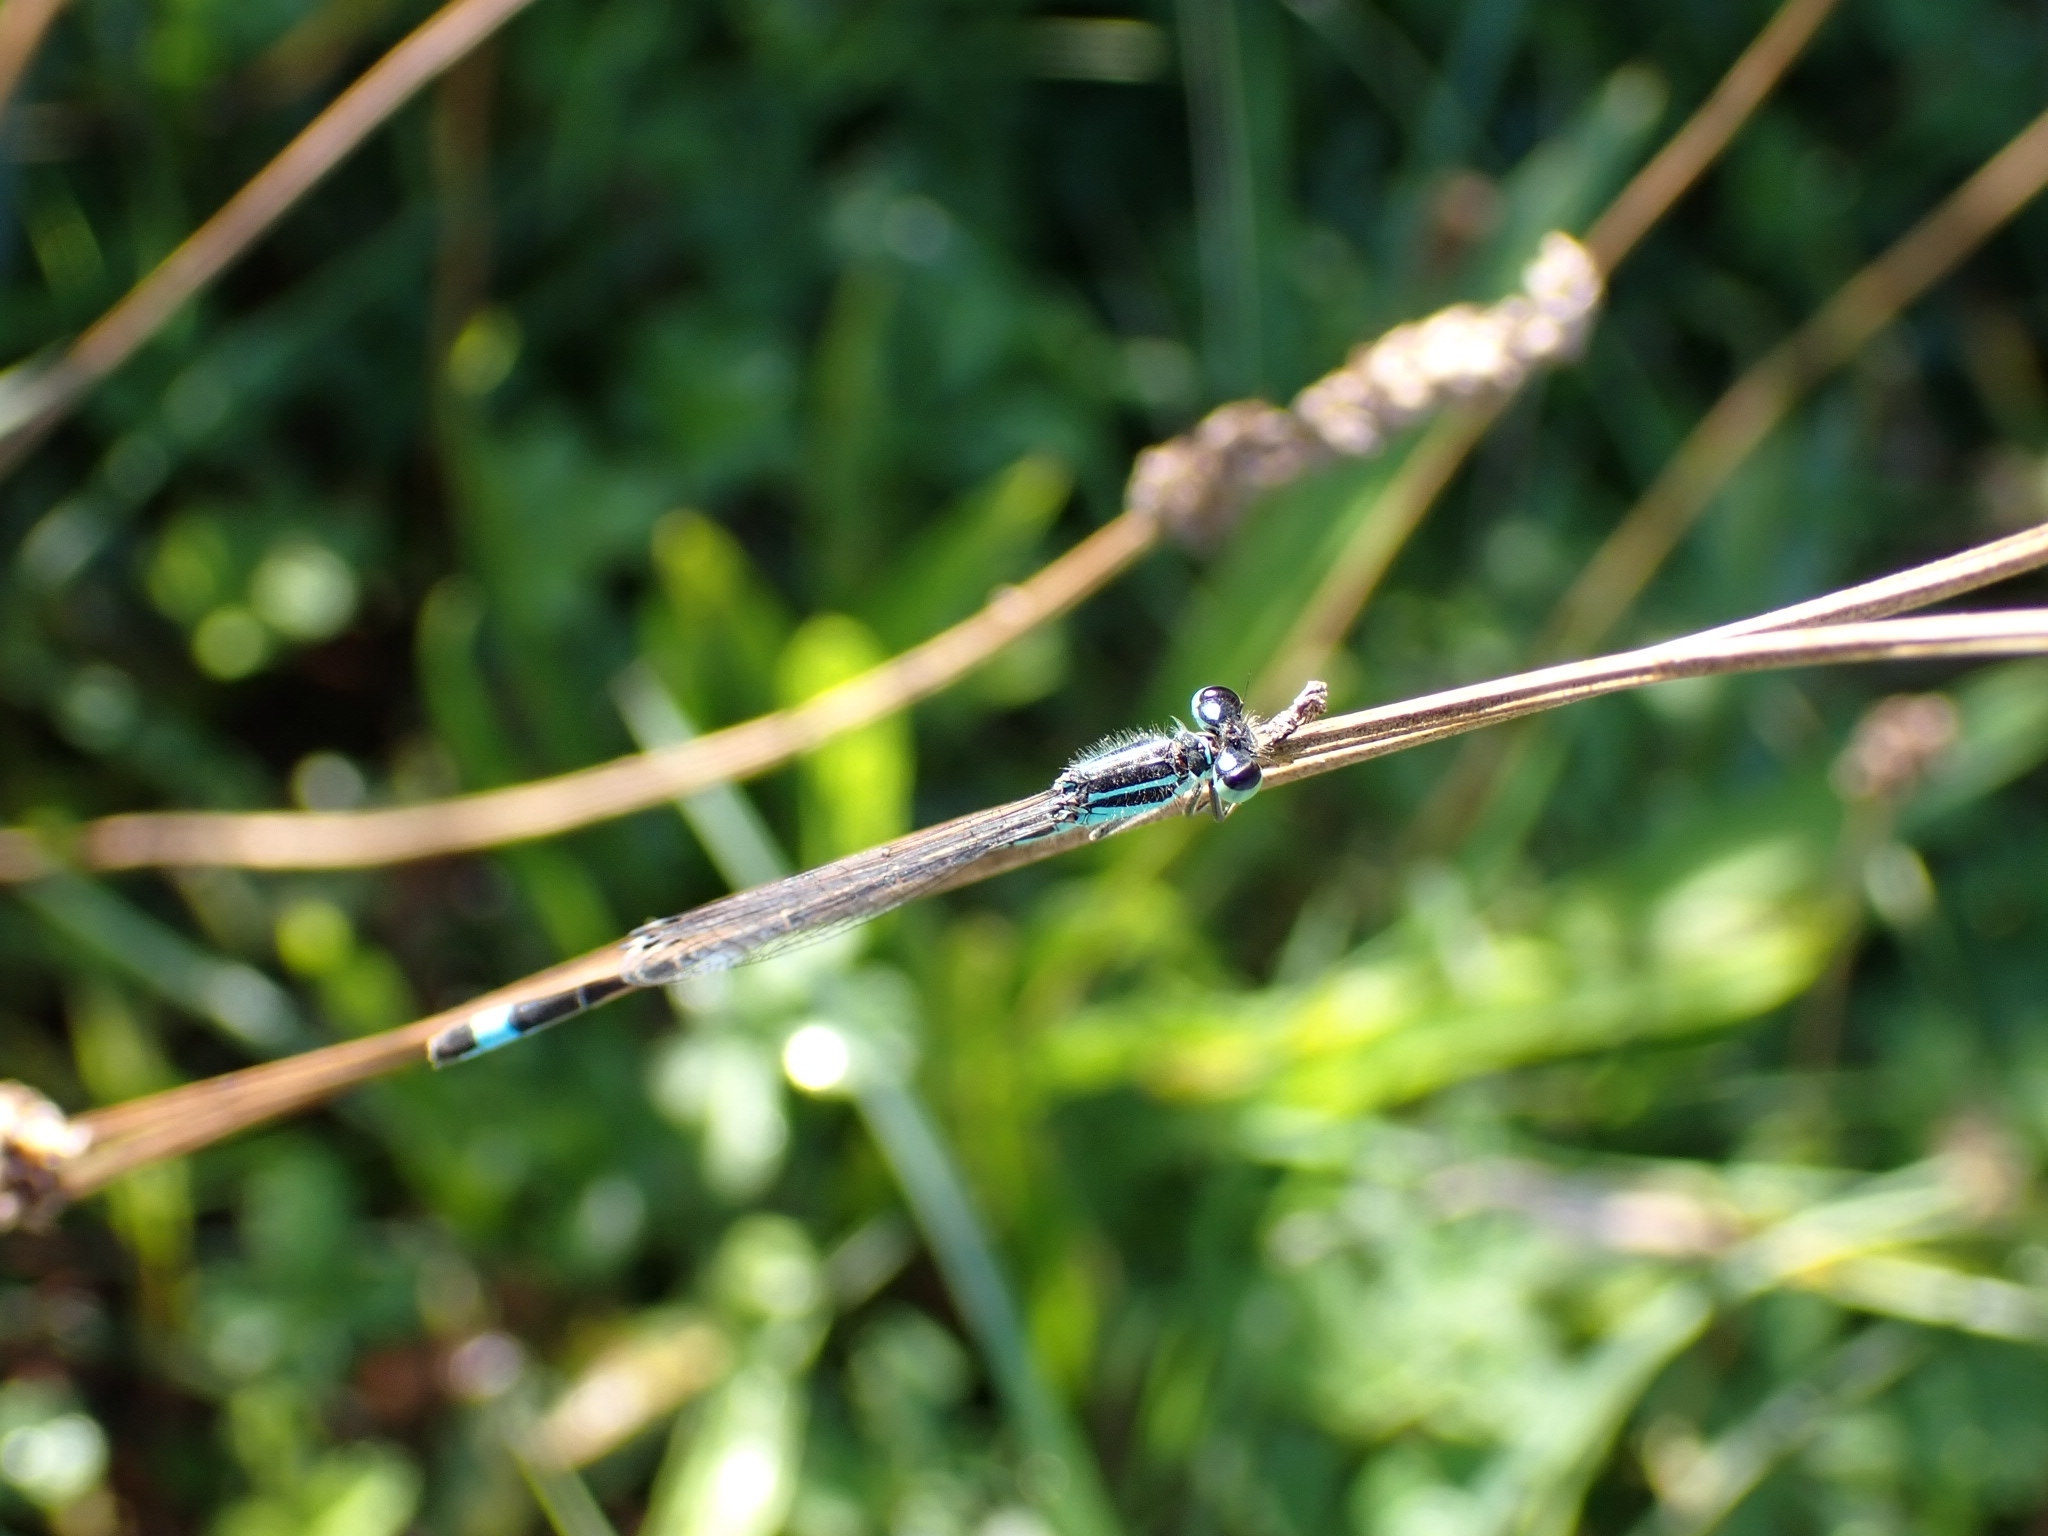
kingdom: Animalia
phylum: Arthropoda
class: Insecta
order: Odonata
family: Coenagrionidae
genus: Ischnura
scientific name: Ischnura elegans
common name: Blue-tailed damselfly
